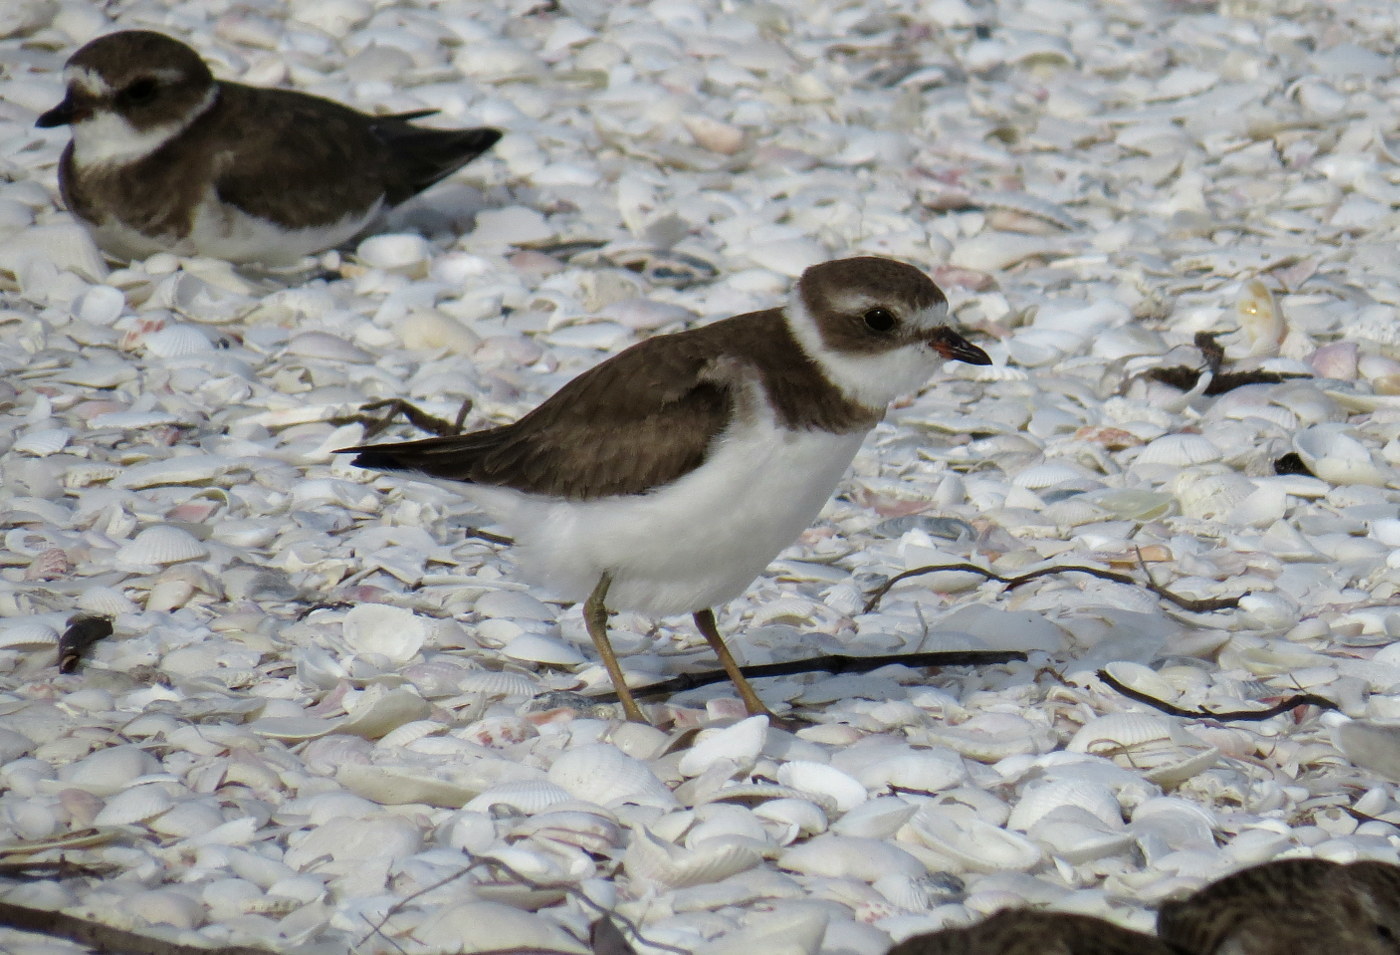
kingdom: Animalia
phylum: Chordata
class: Aves
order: Charadriiformes
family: Charadriidae
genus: Charadrius
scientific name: Charadrius semipalmatus
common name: Semipalmated plover
